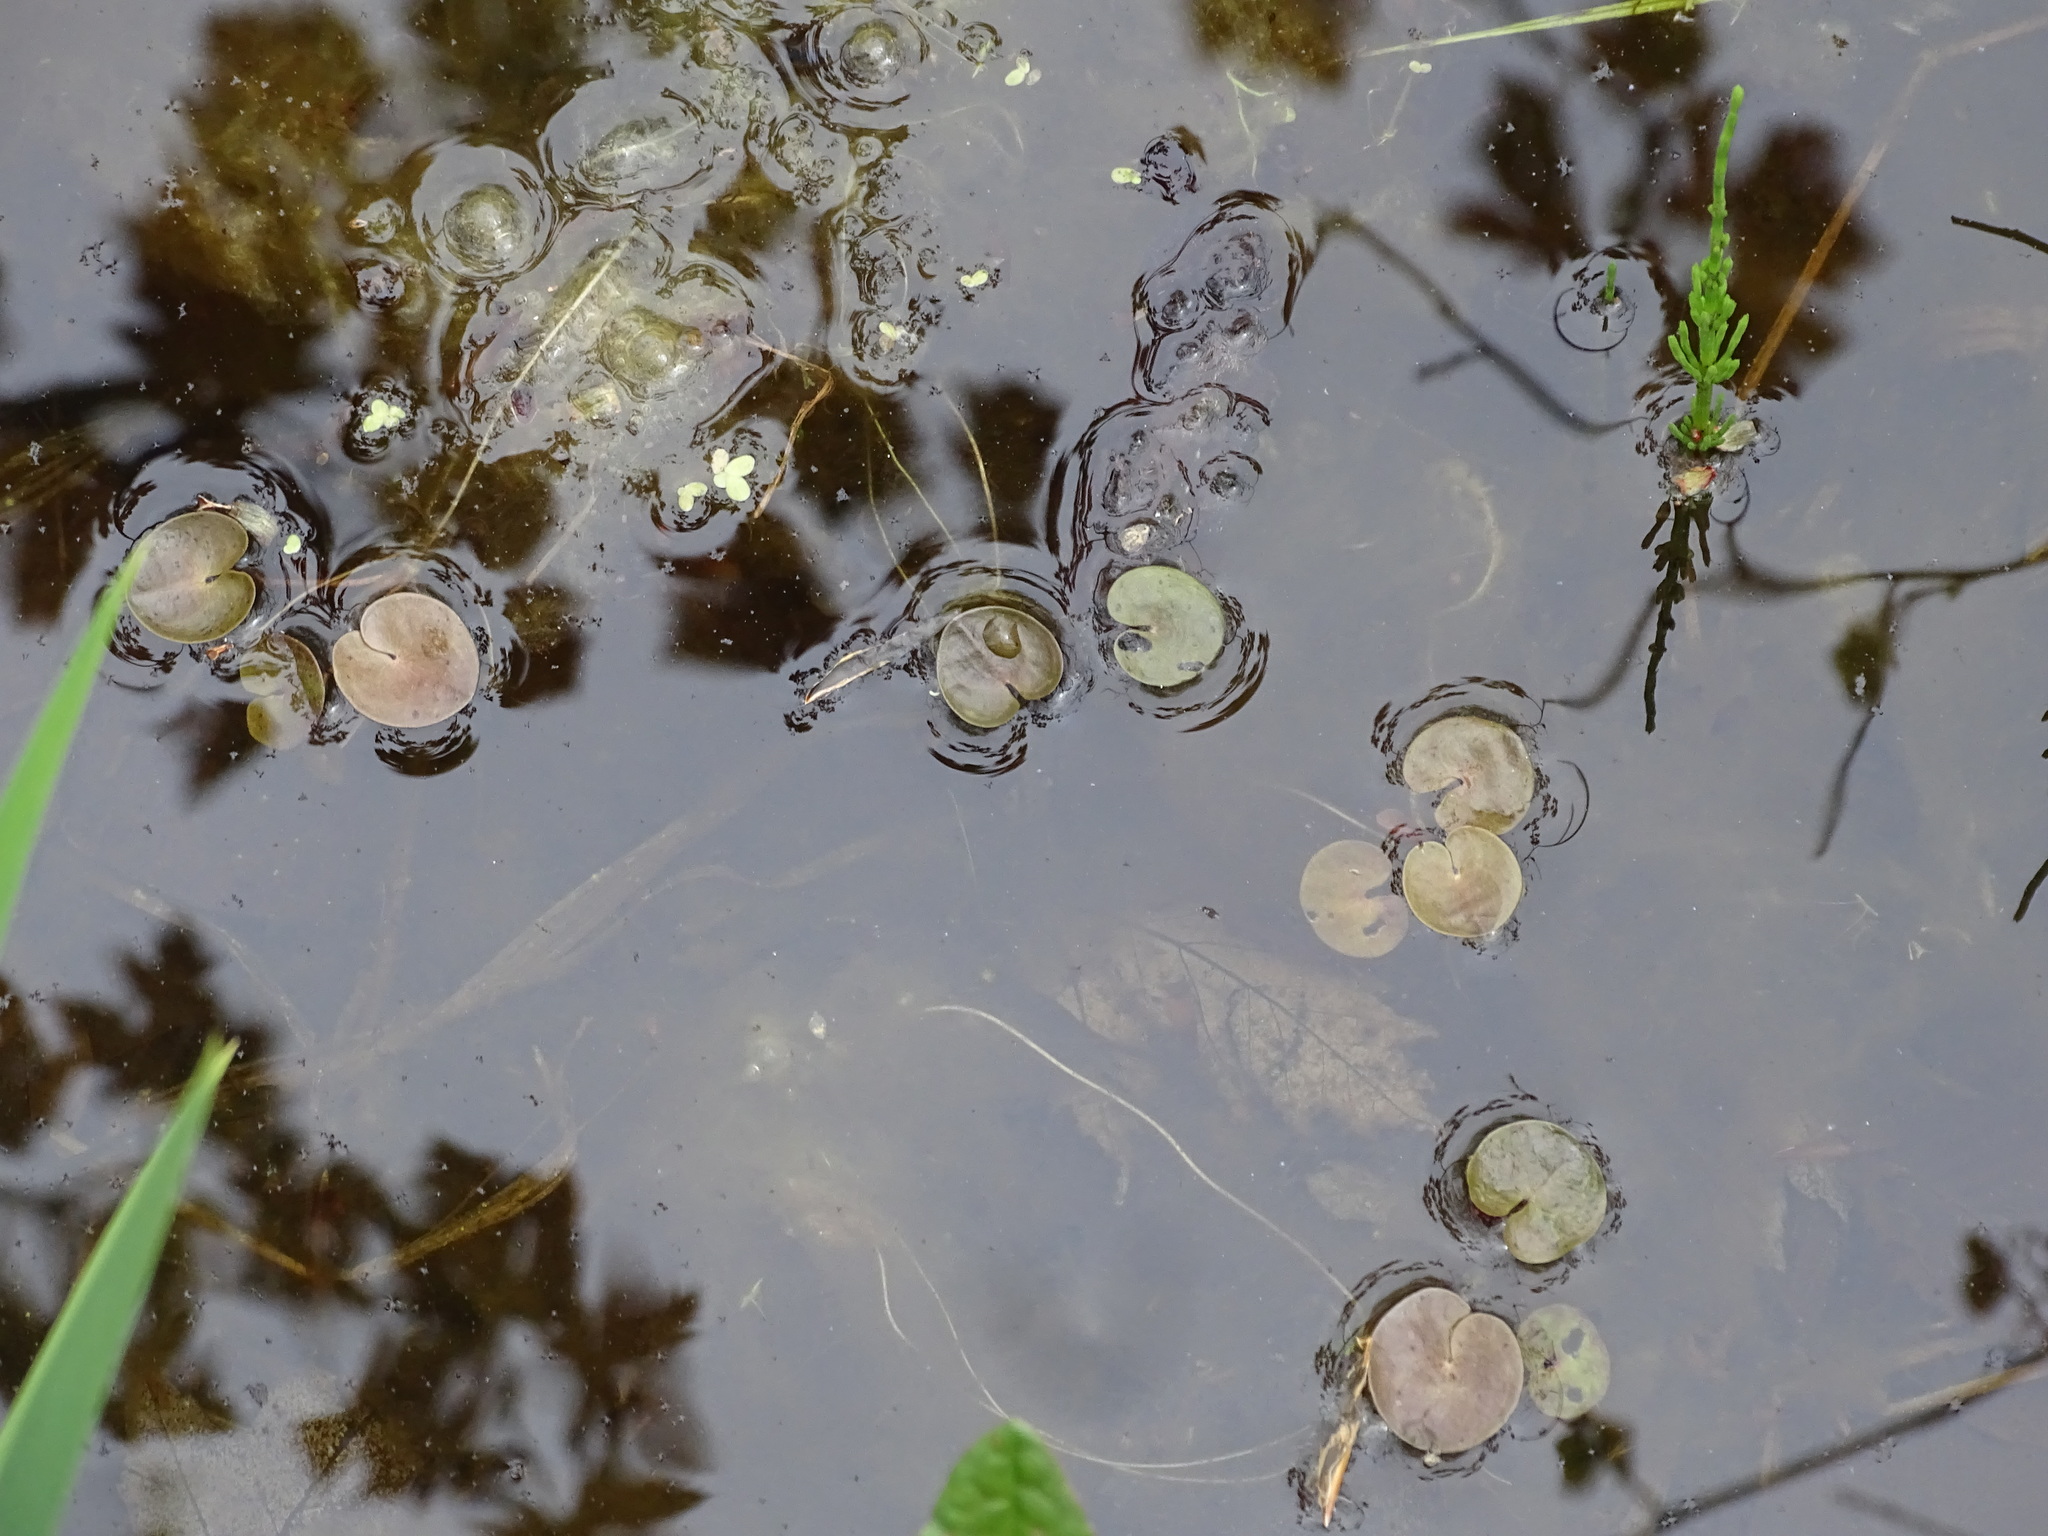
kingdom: Plantae
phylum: Tracheophyta
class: Liliopsida
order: Alismatales
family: Hydrocharitaceae
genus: Hydrocharis
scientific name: Hydrocharis morsus-ranae
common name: Frogbit
